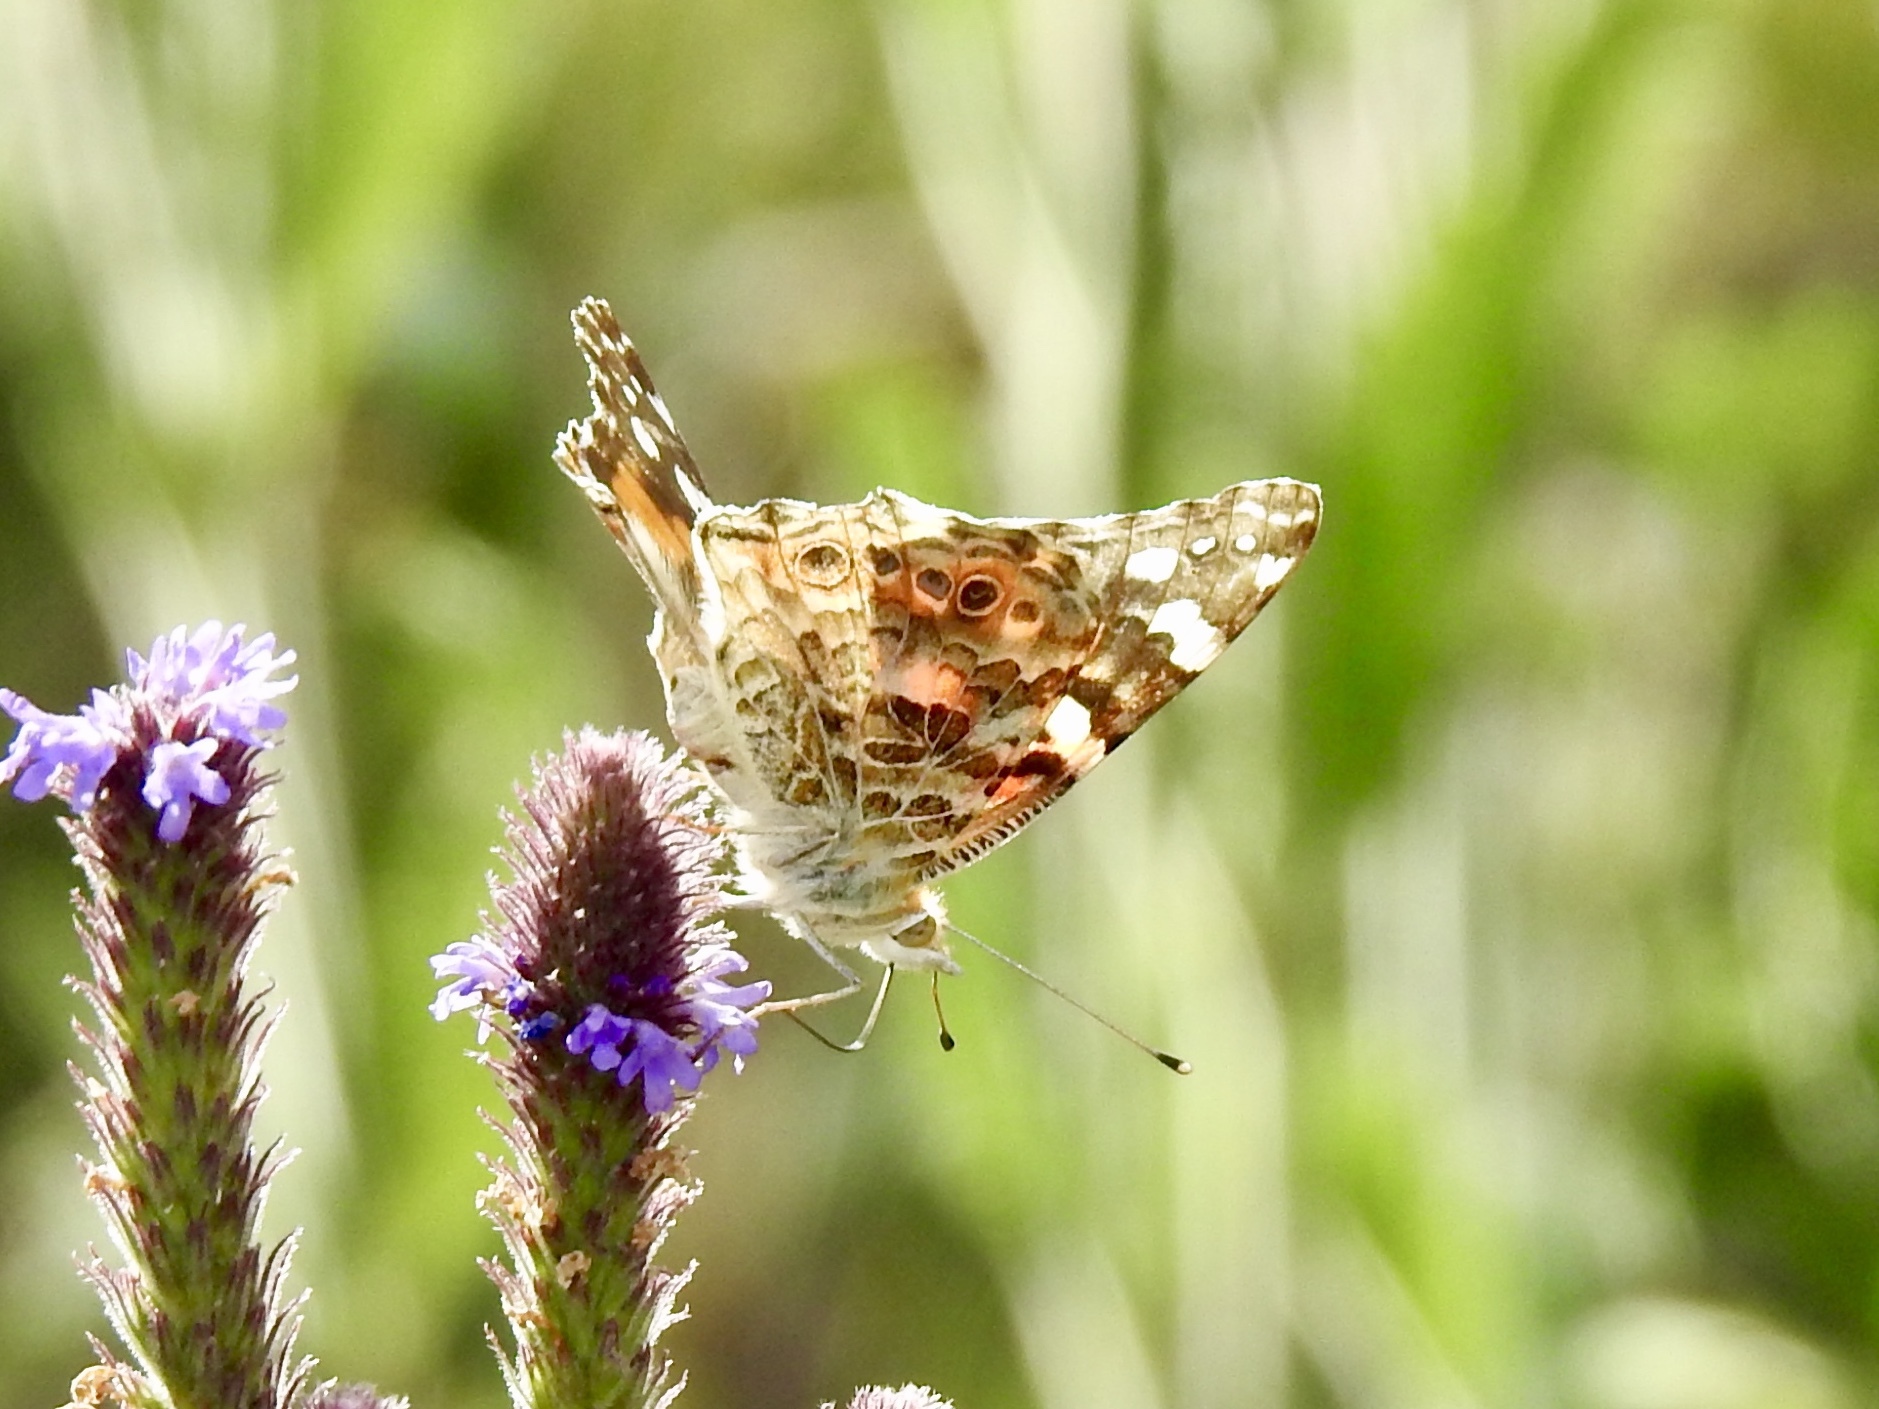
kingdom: Animalia
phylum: Arthropoda
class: Insecta
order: Lepidoptera
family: Nymphalidae
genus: Vanessa
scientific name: Vanessa cardui
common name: Painted lady
